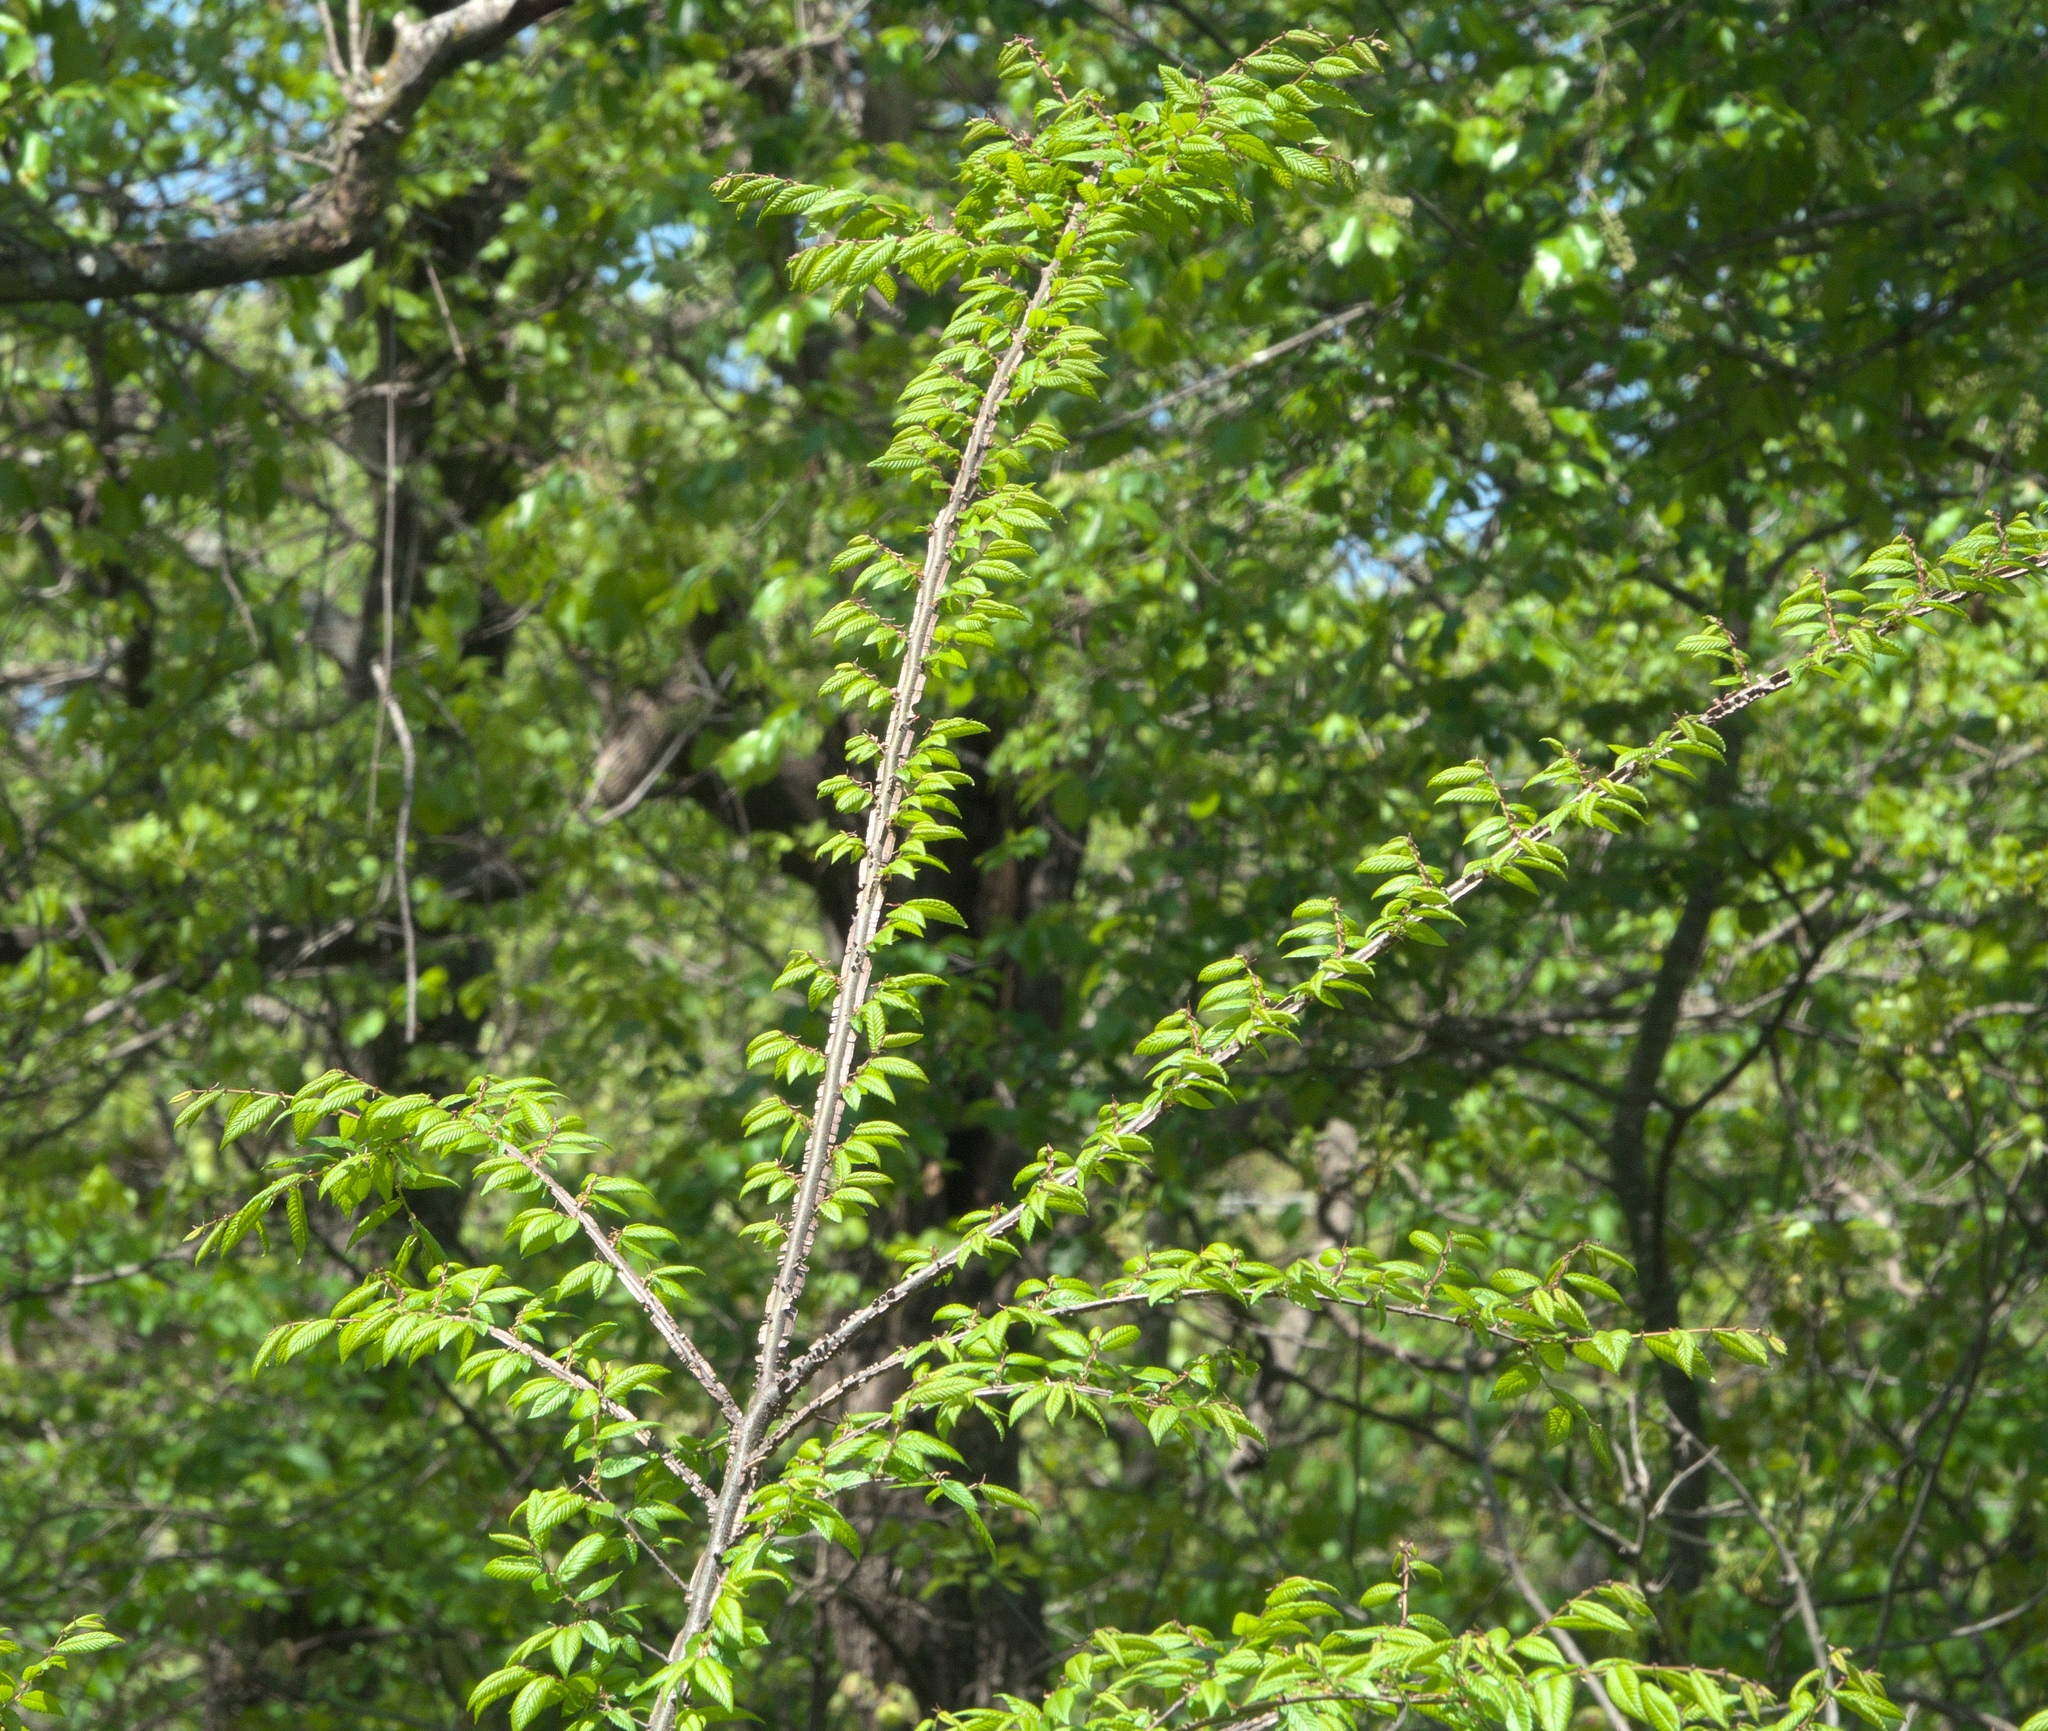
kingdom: Plantae
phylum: Tracheophyta
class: Magnoliopsida
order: Rosales
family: Ulmaceae
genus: Ulmus
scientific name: Ulmus alata
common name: Winged elm
